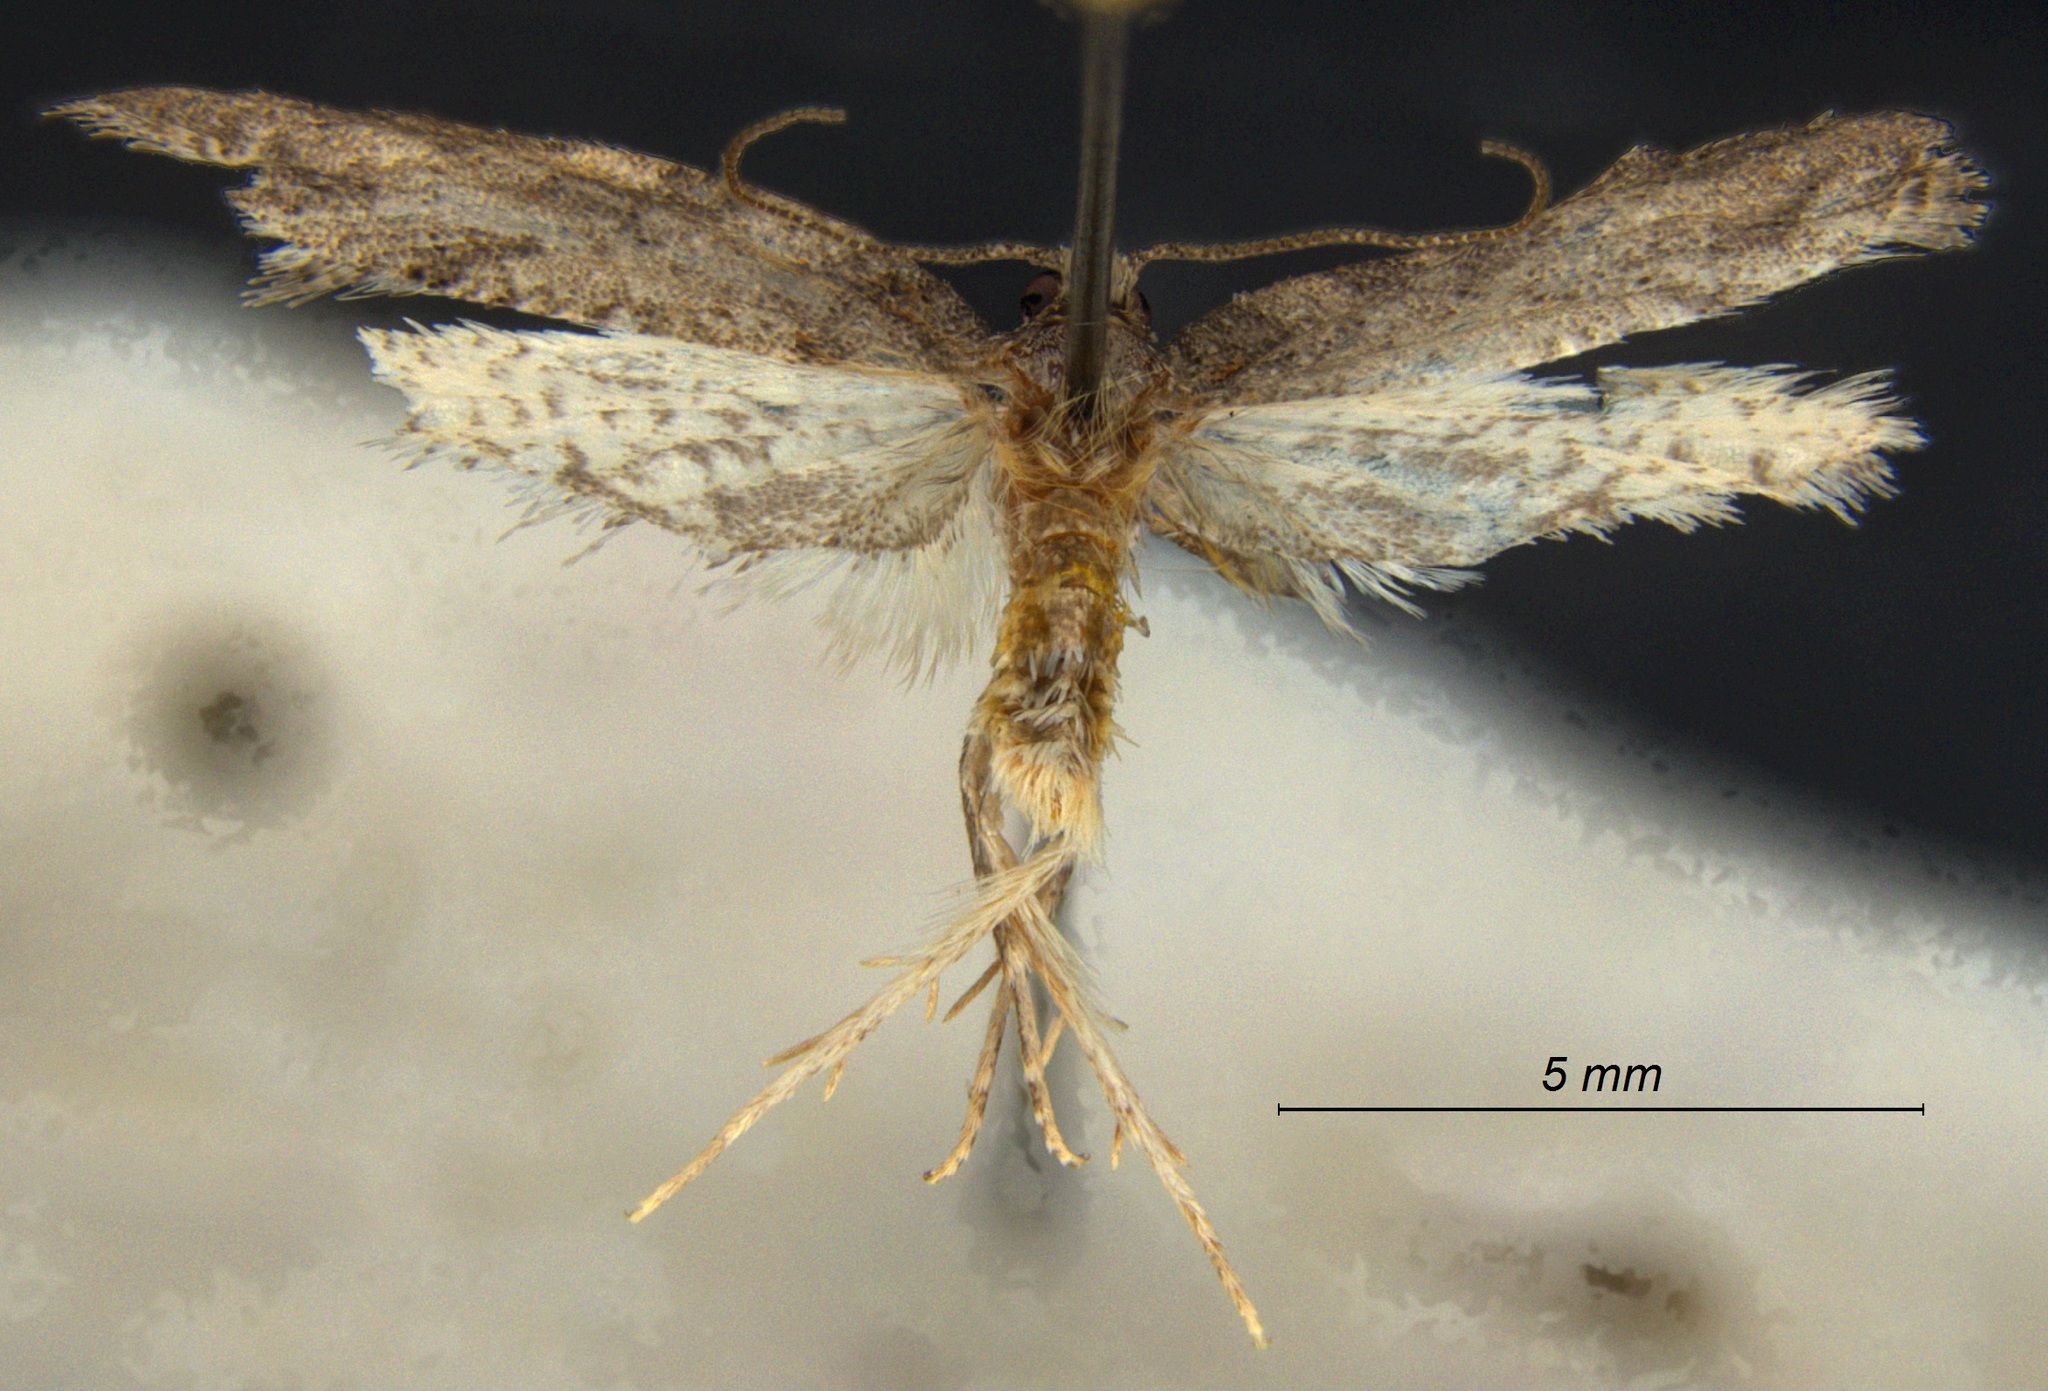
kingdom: Animalia
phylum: Arthropoda
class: Insecta
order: Lepidoptera
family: Tortricidae
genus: Argyrotaenia
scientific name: Argyrotaenia franciscana
